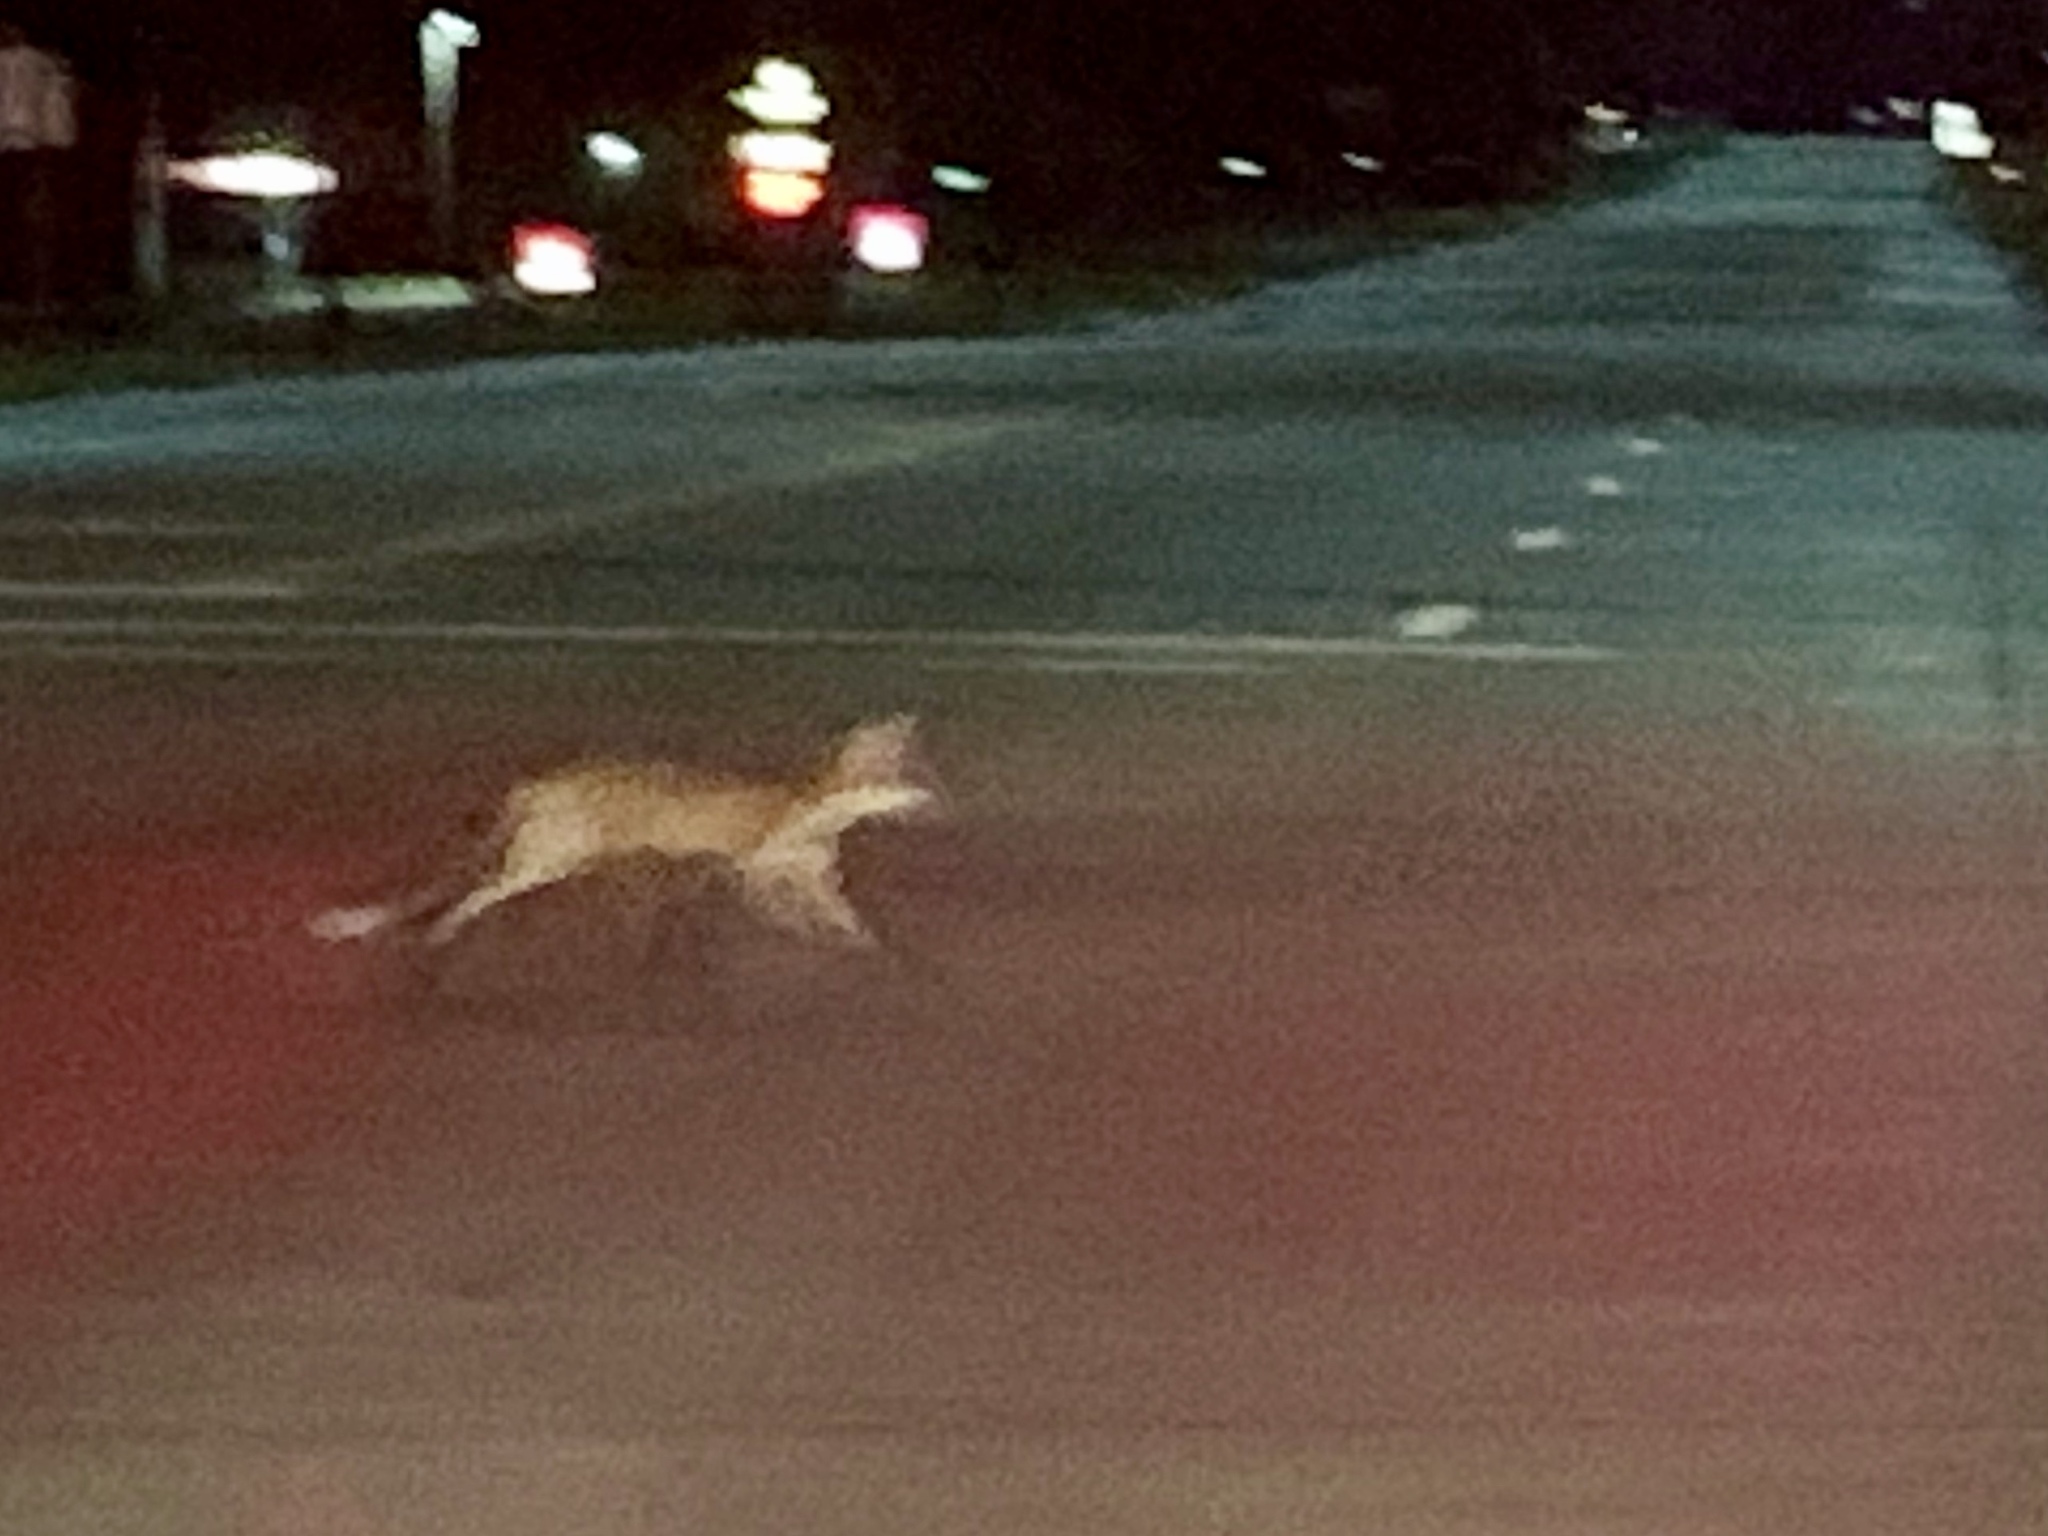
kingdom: Animalia
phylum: Chordata
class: Mammalia
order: Carnivora
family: Canidae
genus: Vulpes
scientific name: Vulpes vulpes
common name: Red fox
